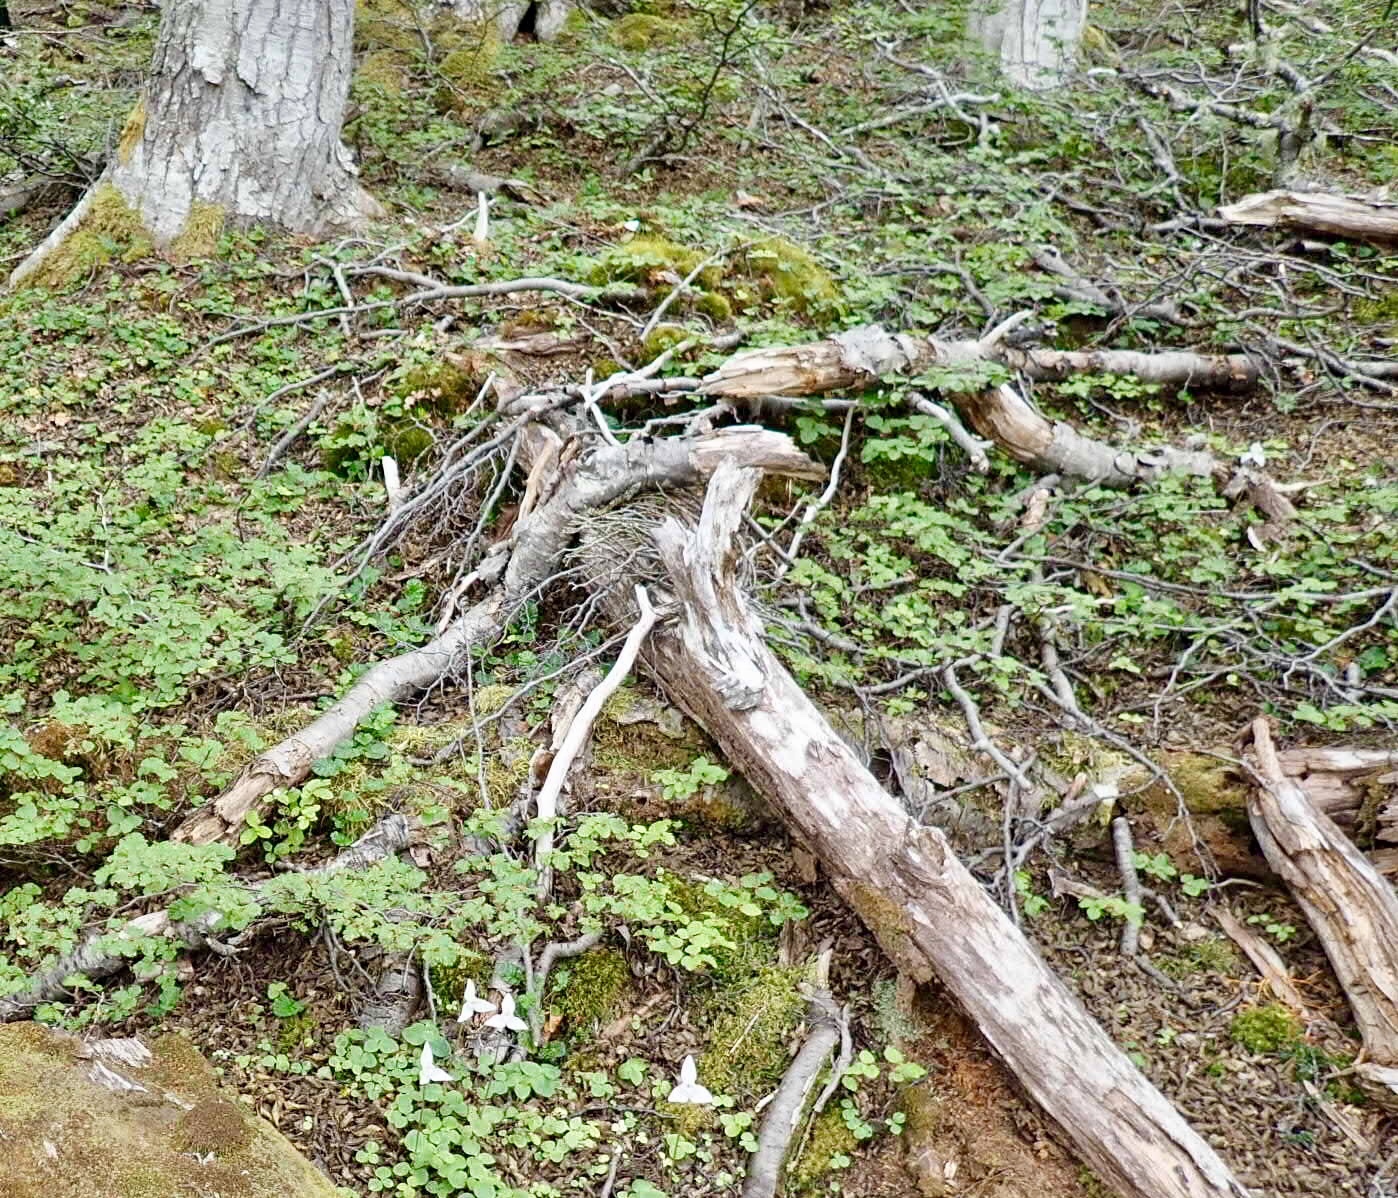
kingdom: Plantae
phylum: Tracheophyta
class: Liliopsida
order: Asparagales
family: Orchidaceae
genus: Codonorchis
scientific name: Codonorchis lessonii
